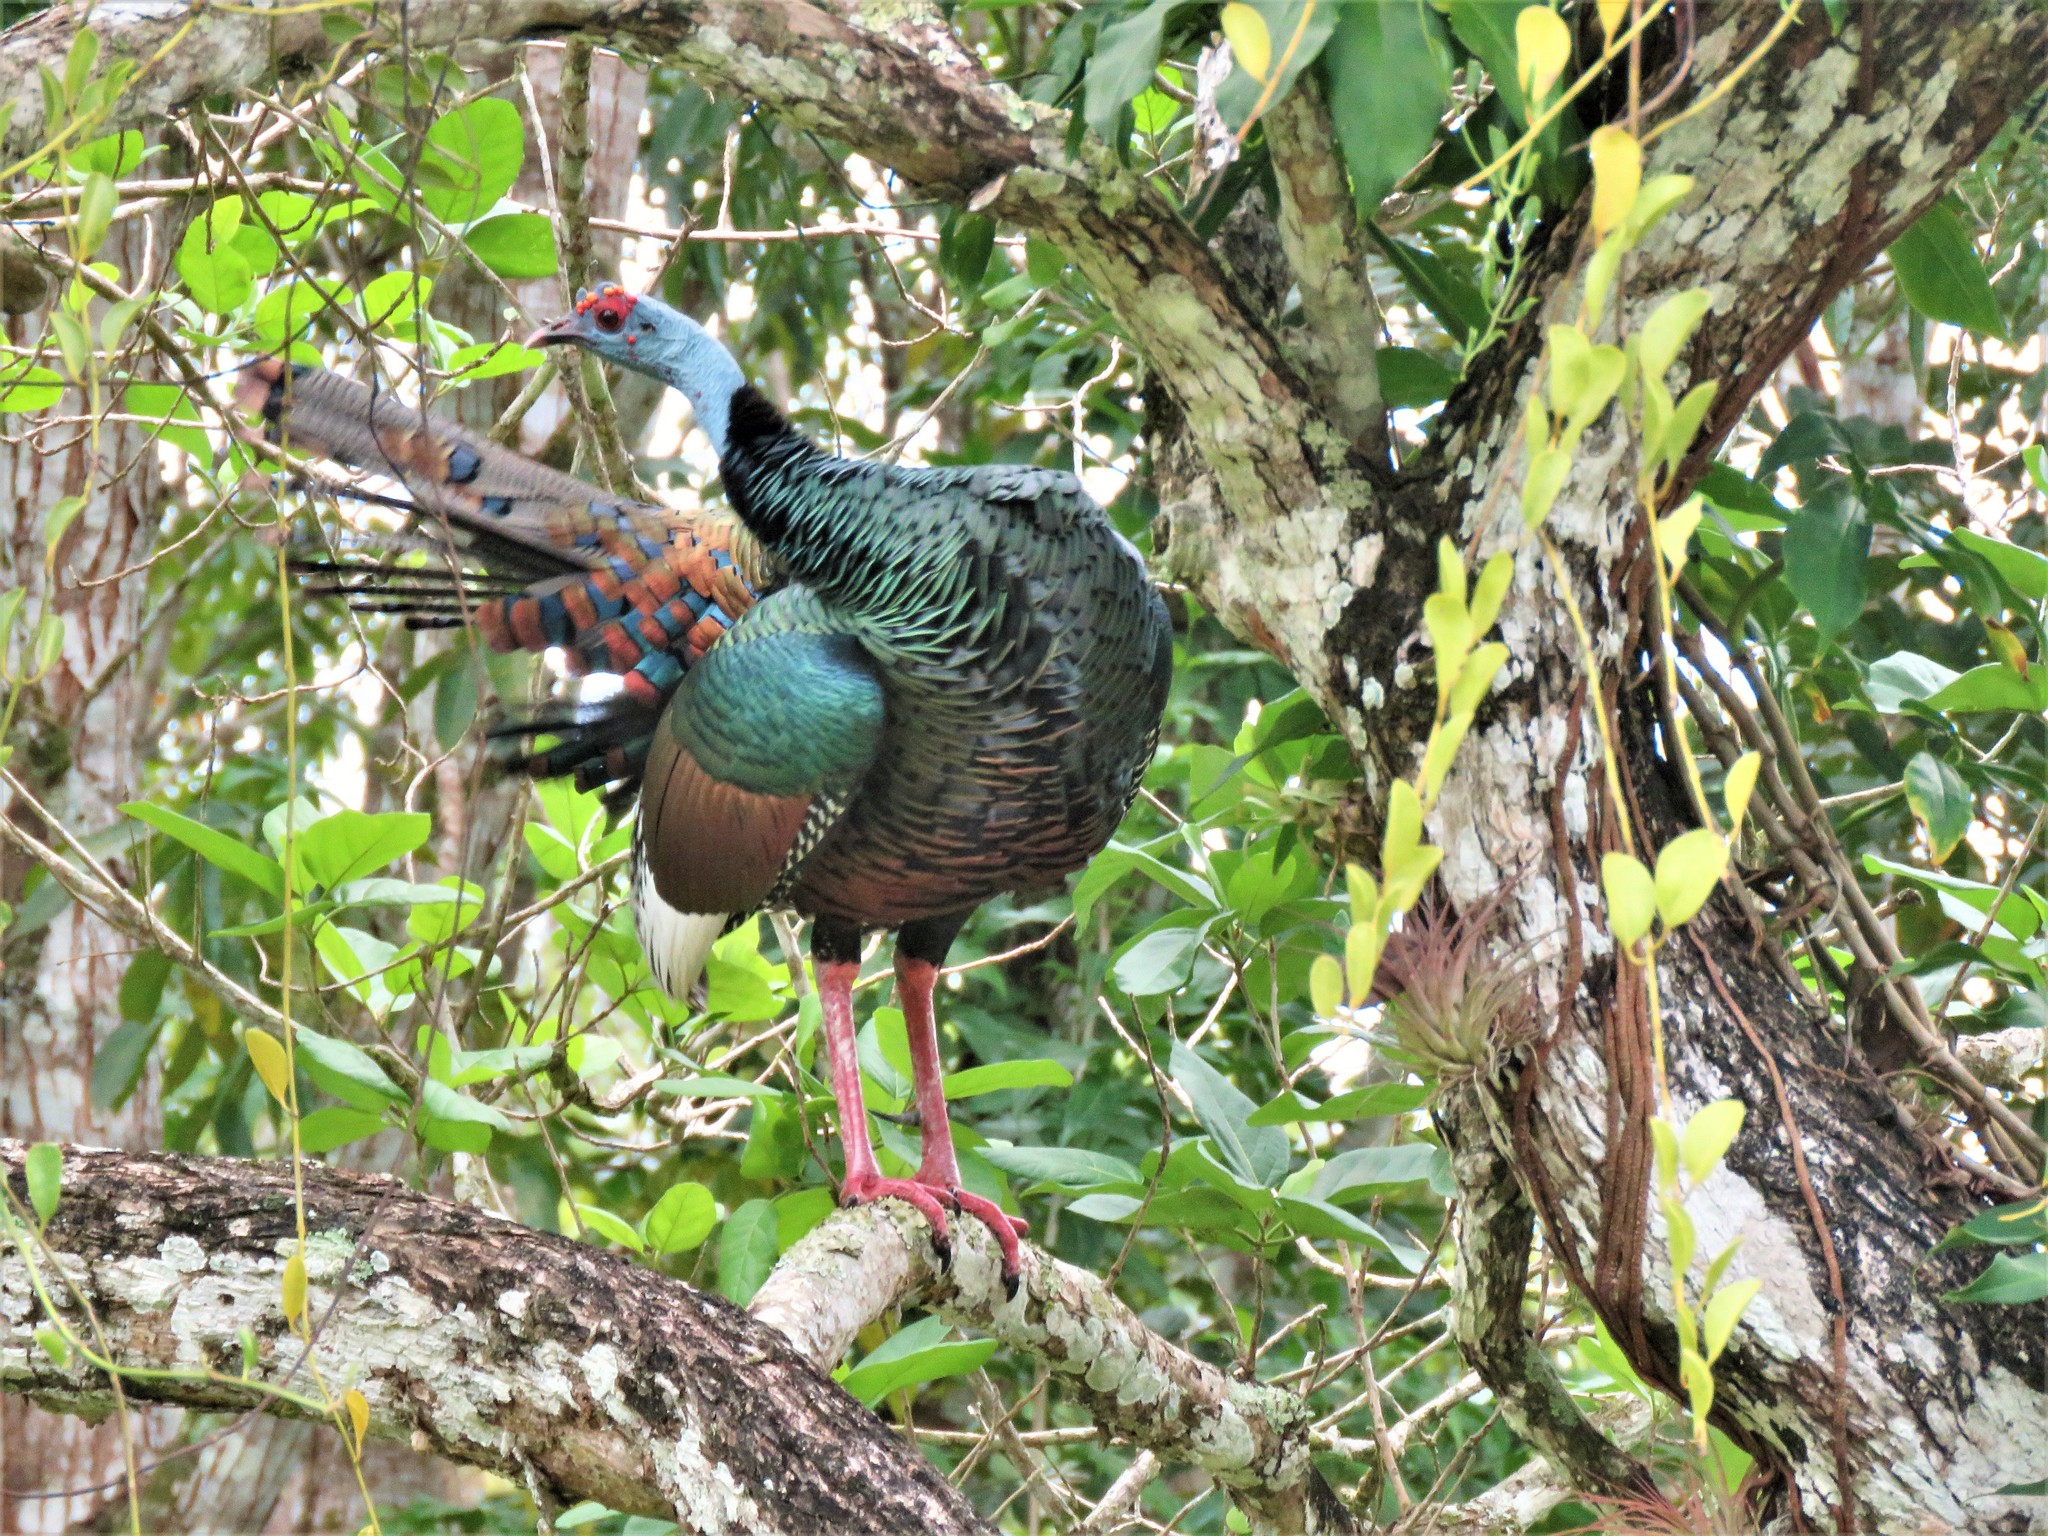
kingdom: Animalia
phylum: Chordata
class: Aves
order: Galliformes
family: Phasianidae
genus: Meleagris
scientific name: Meleagris ocellata
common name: Ocellated turkey
